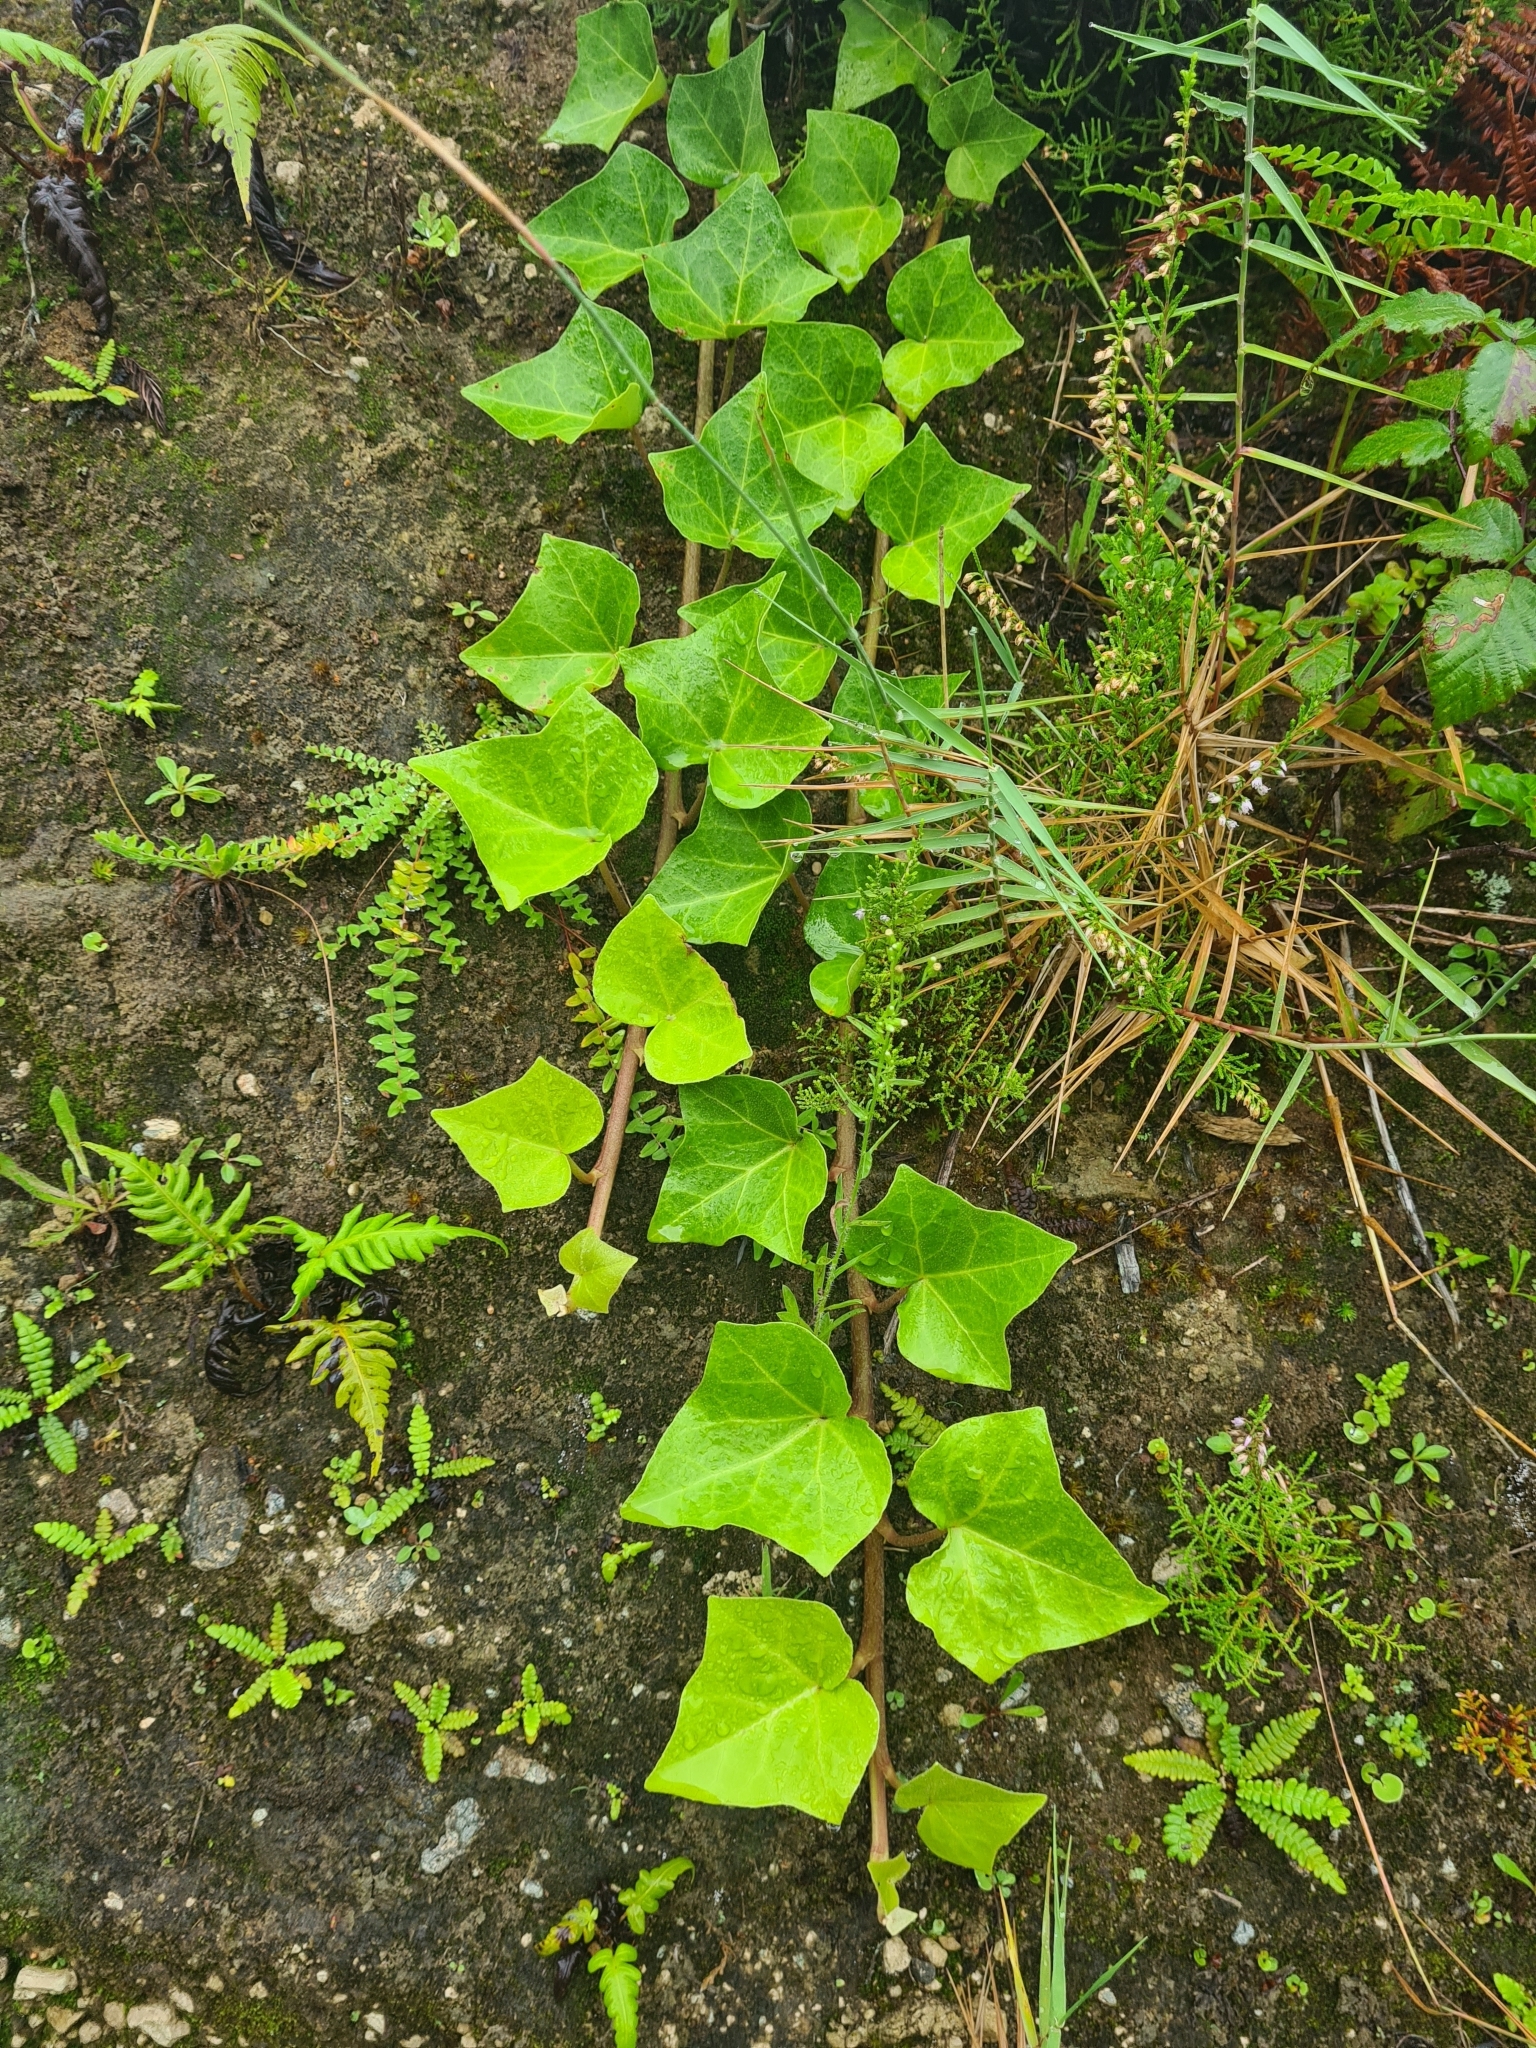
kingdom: Plantae
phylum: Tracheophyta
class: Magnoliopsida
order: Apiales
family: Araliaceae
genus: Hedera
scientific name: Hedera azorica
